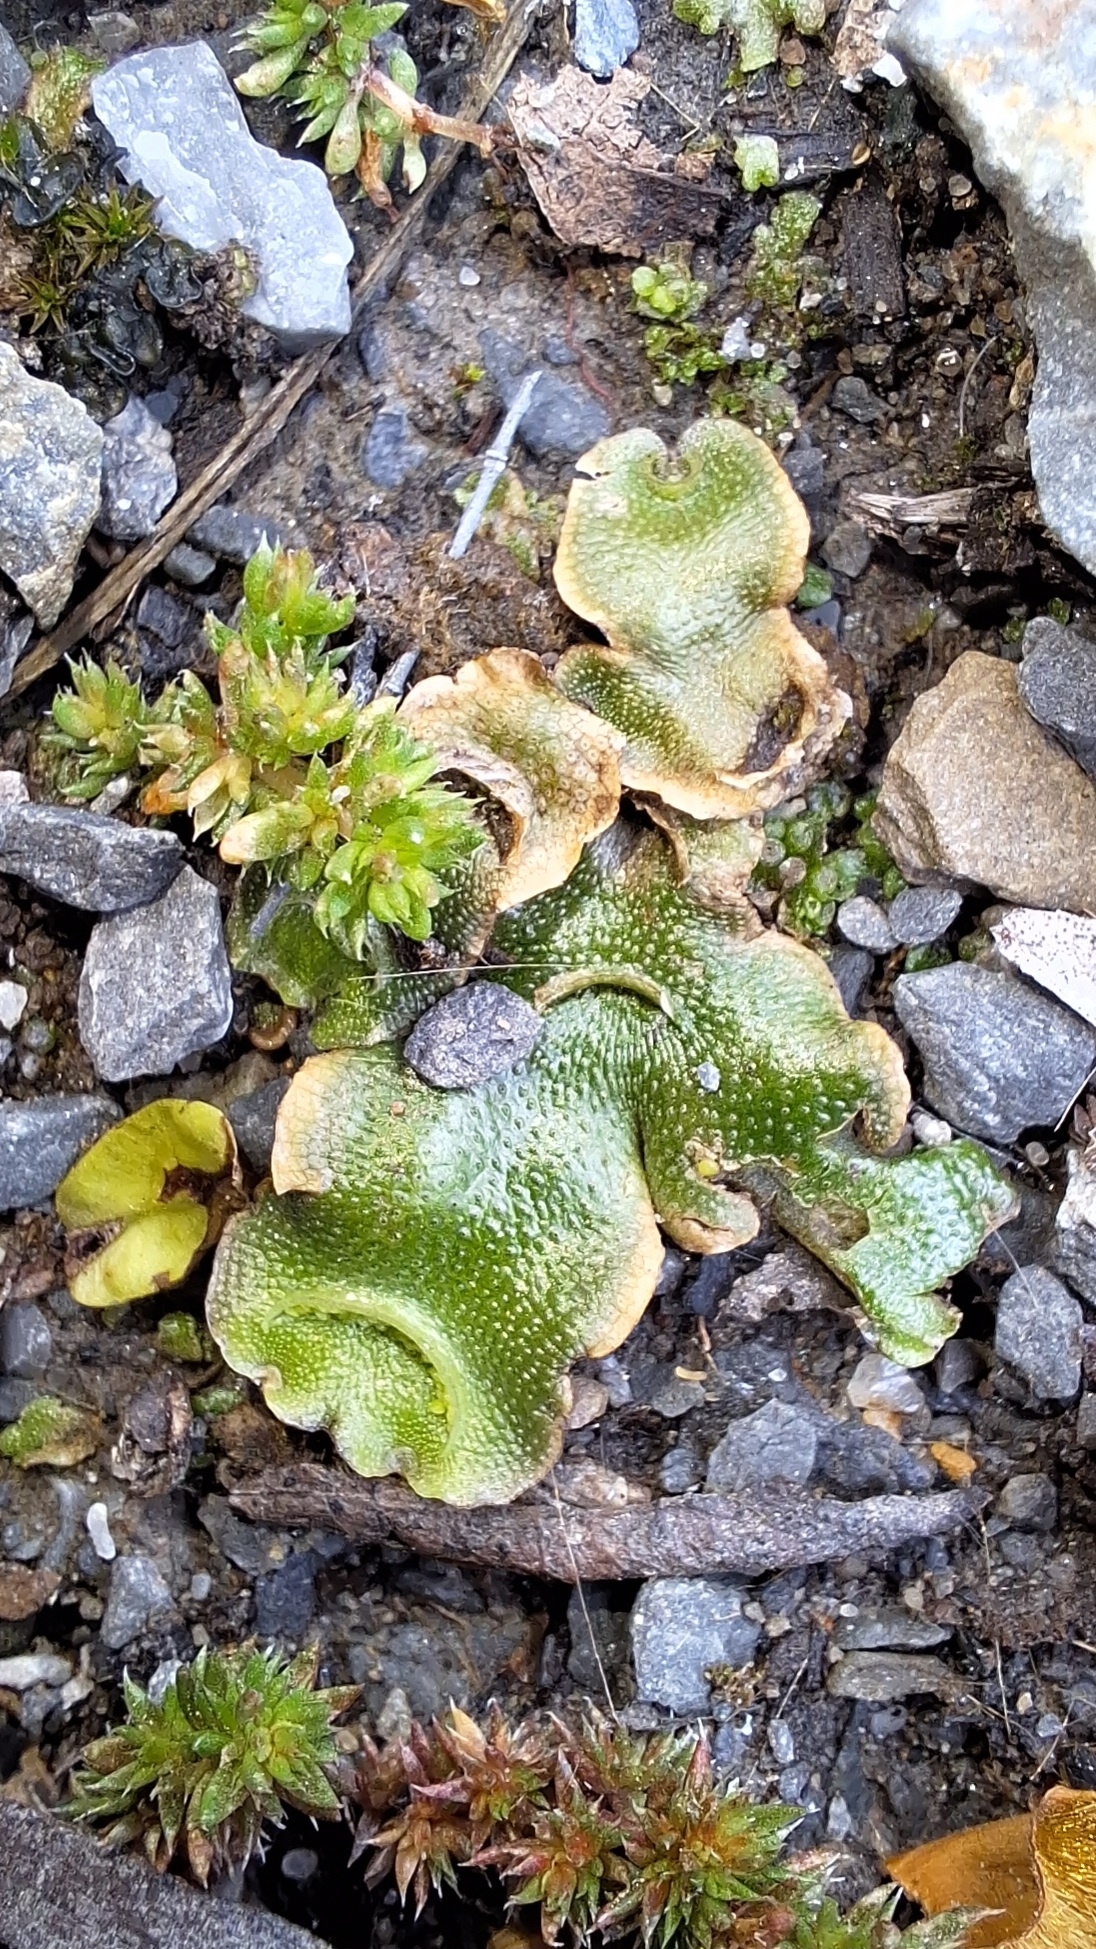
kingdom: Plantae
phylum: Marchantiophyta
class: Marchantiopsida
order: Lunulariales
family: Lunulariaceae
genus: Lunularia
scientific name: Lunularia cruciata
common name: Crescent-cup liverwort
